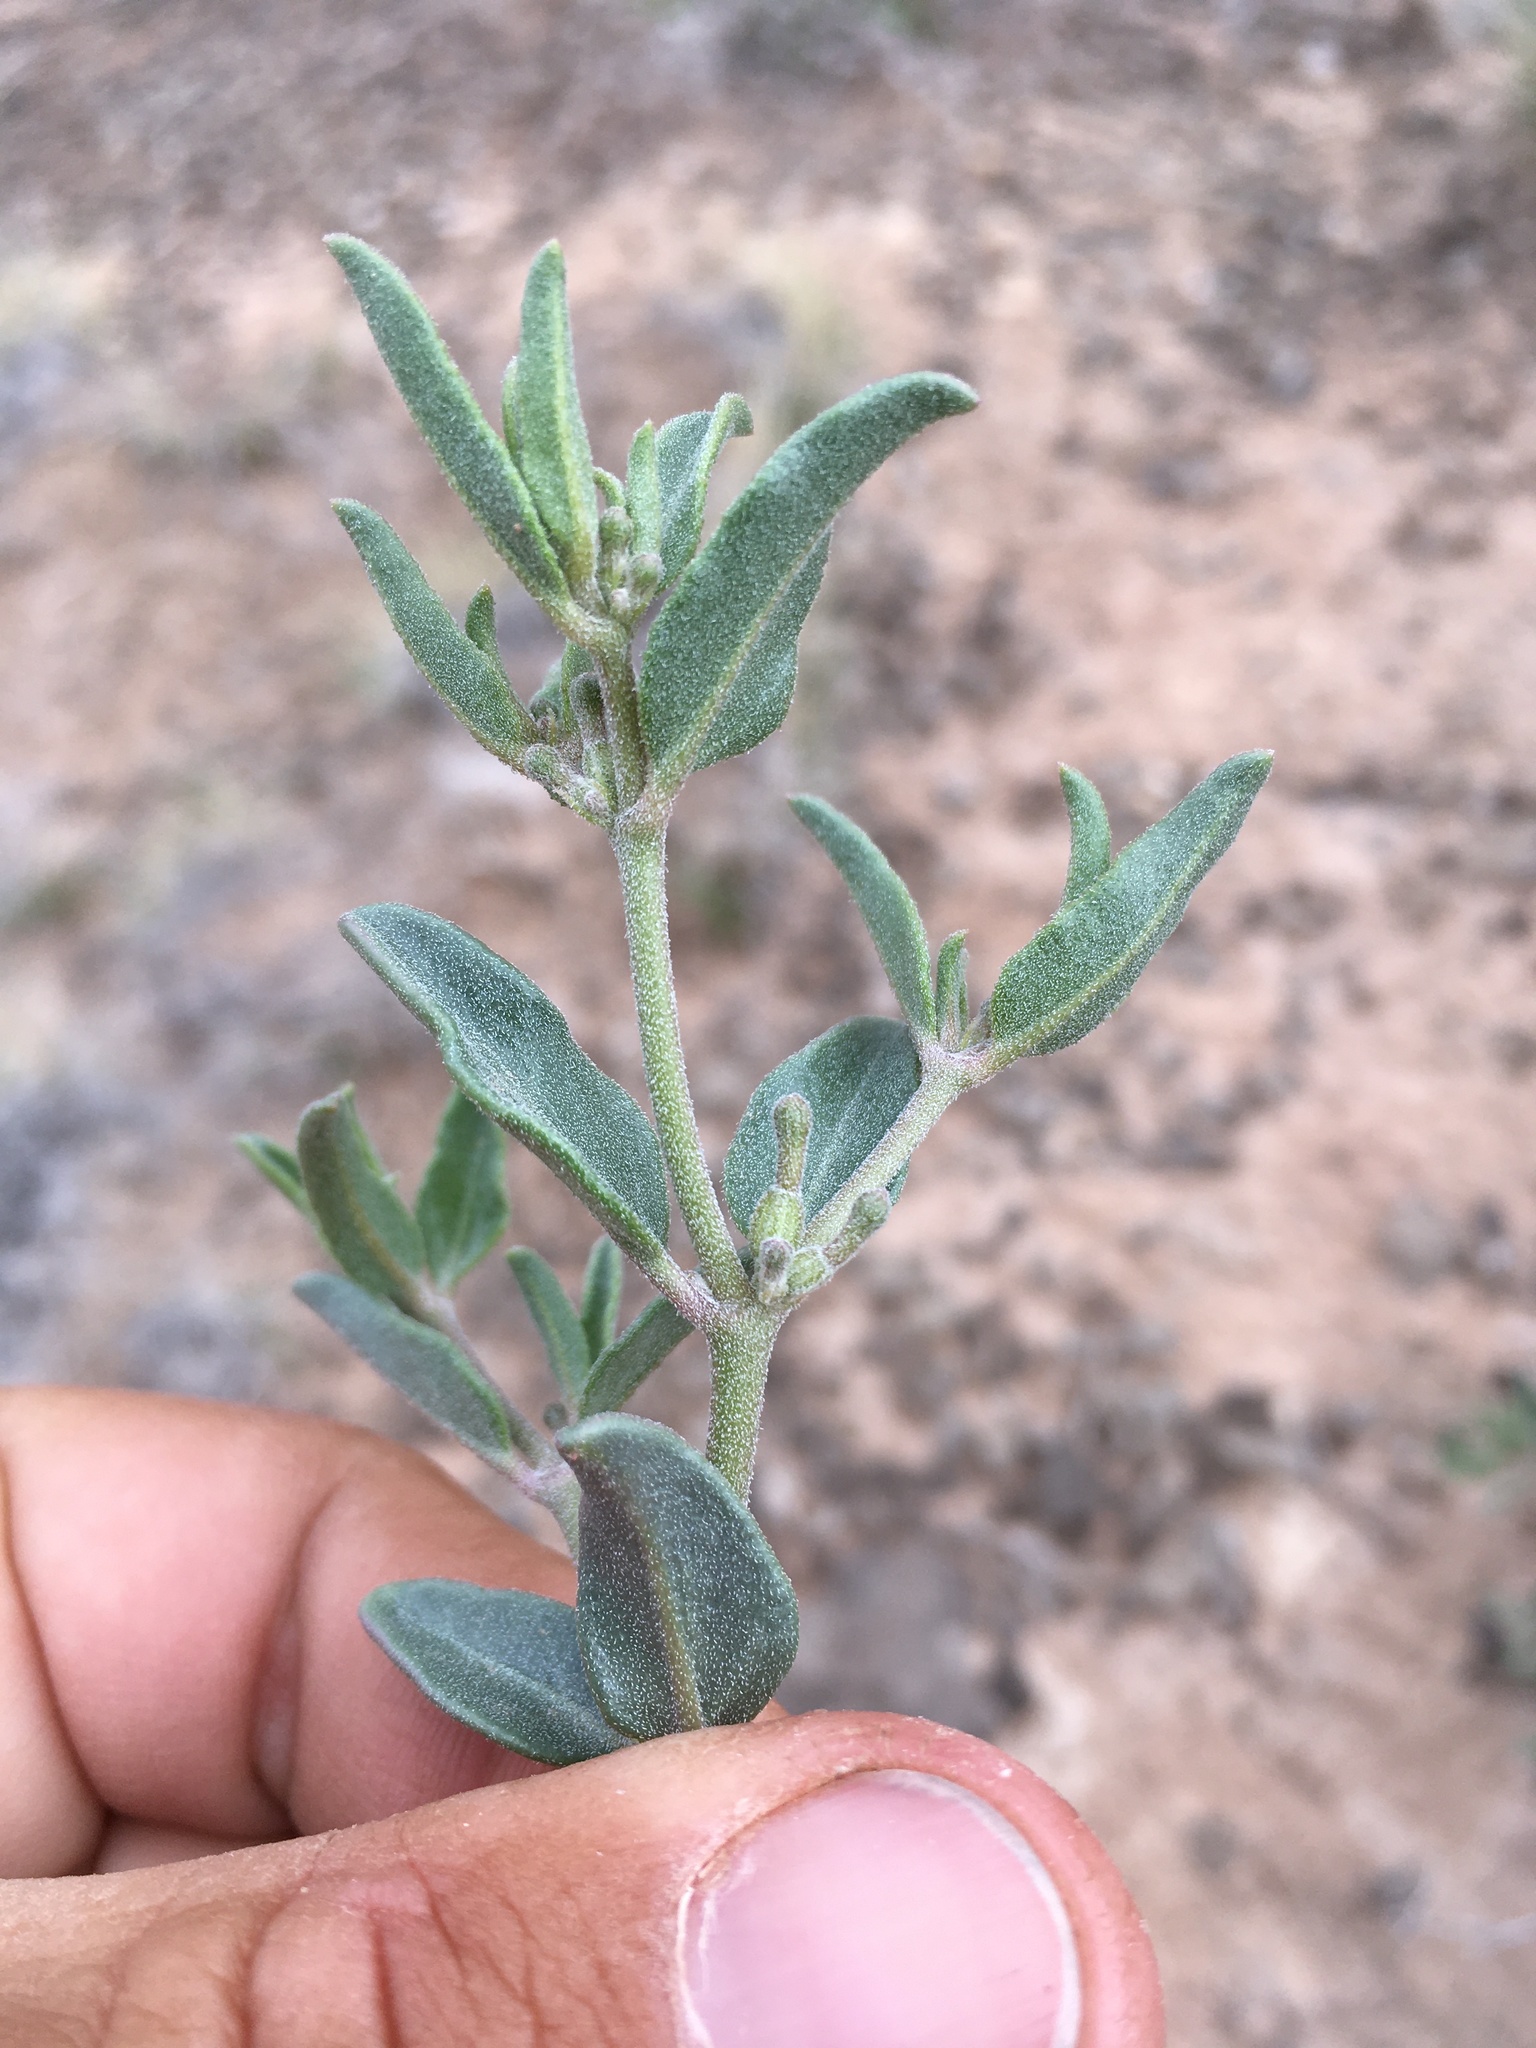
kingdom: Plantae
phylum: Tracheophyta
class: Magnoliopsida
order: Caryophyllales
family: Nyctaginaceae
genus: Acleisanthes
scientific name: Acleisanthes lanceolata
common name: Gypsum moonpod
